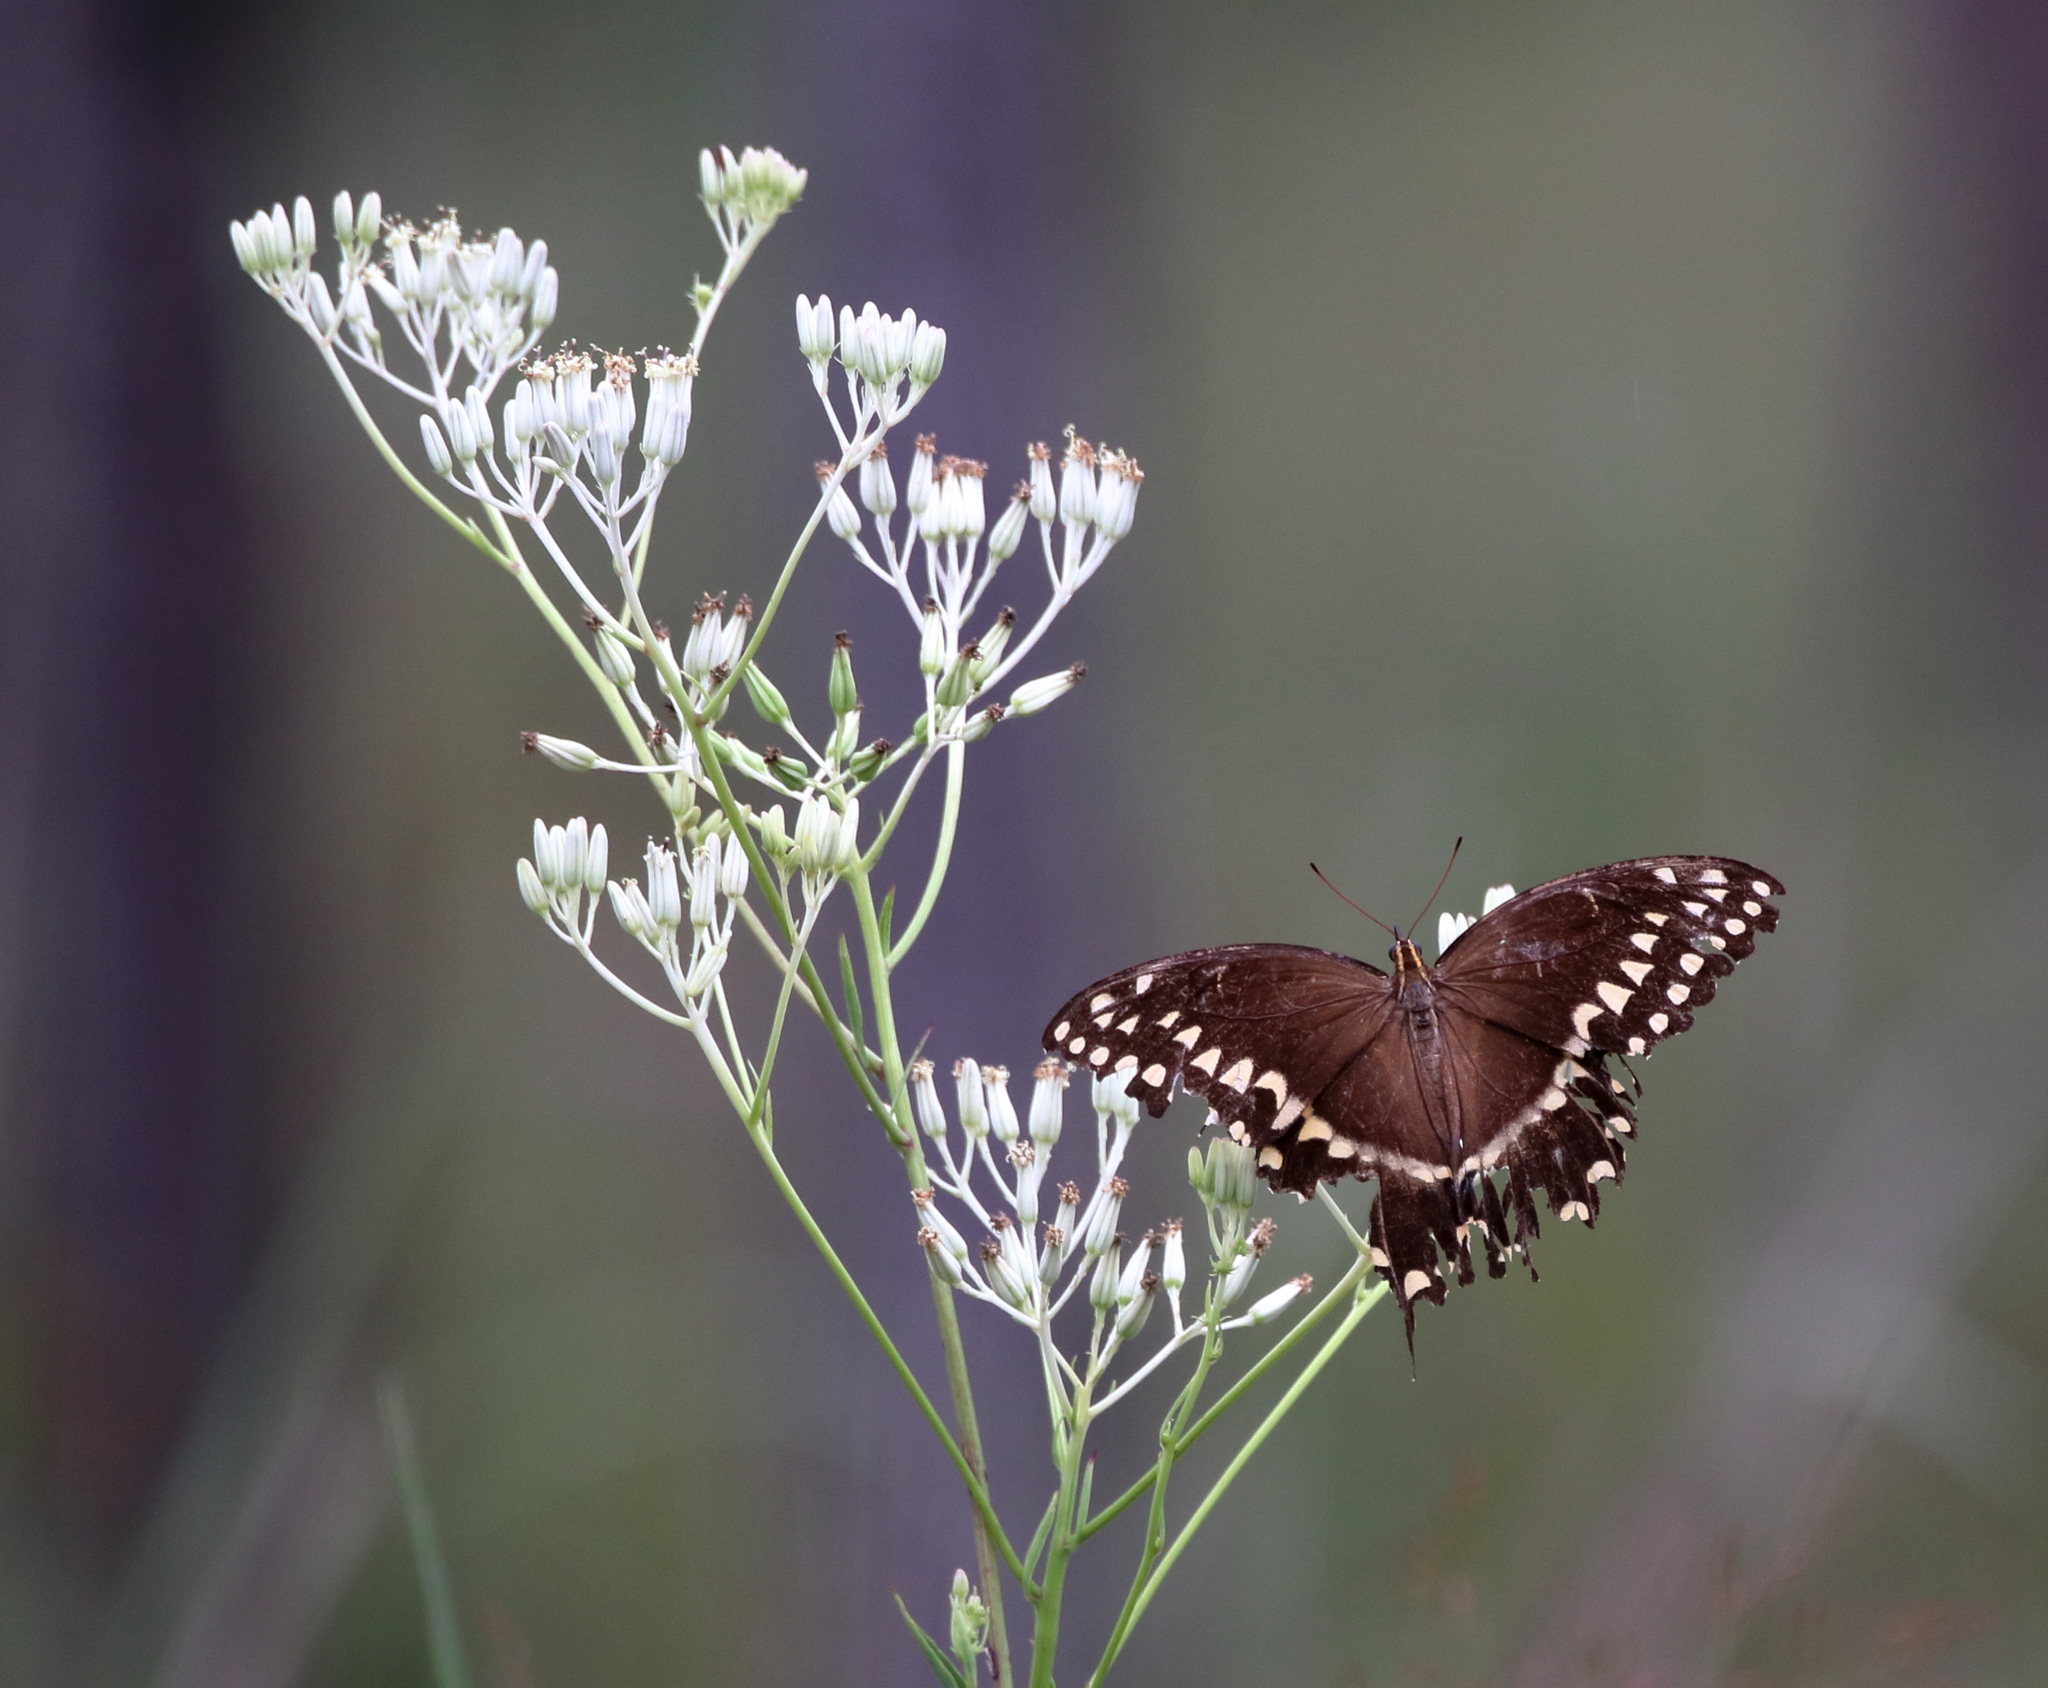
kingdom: Animalia
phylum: Arthropoda
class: Insecta
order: Lepidoptera
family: Papilionidae
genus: Papilio
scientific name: Papilio palamedes
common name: Palamedes swallowtail
